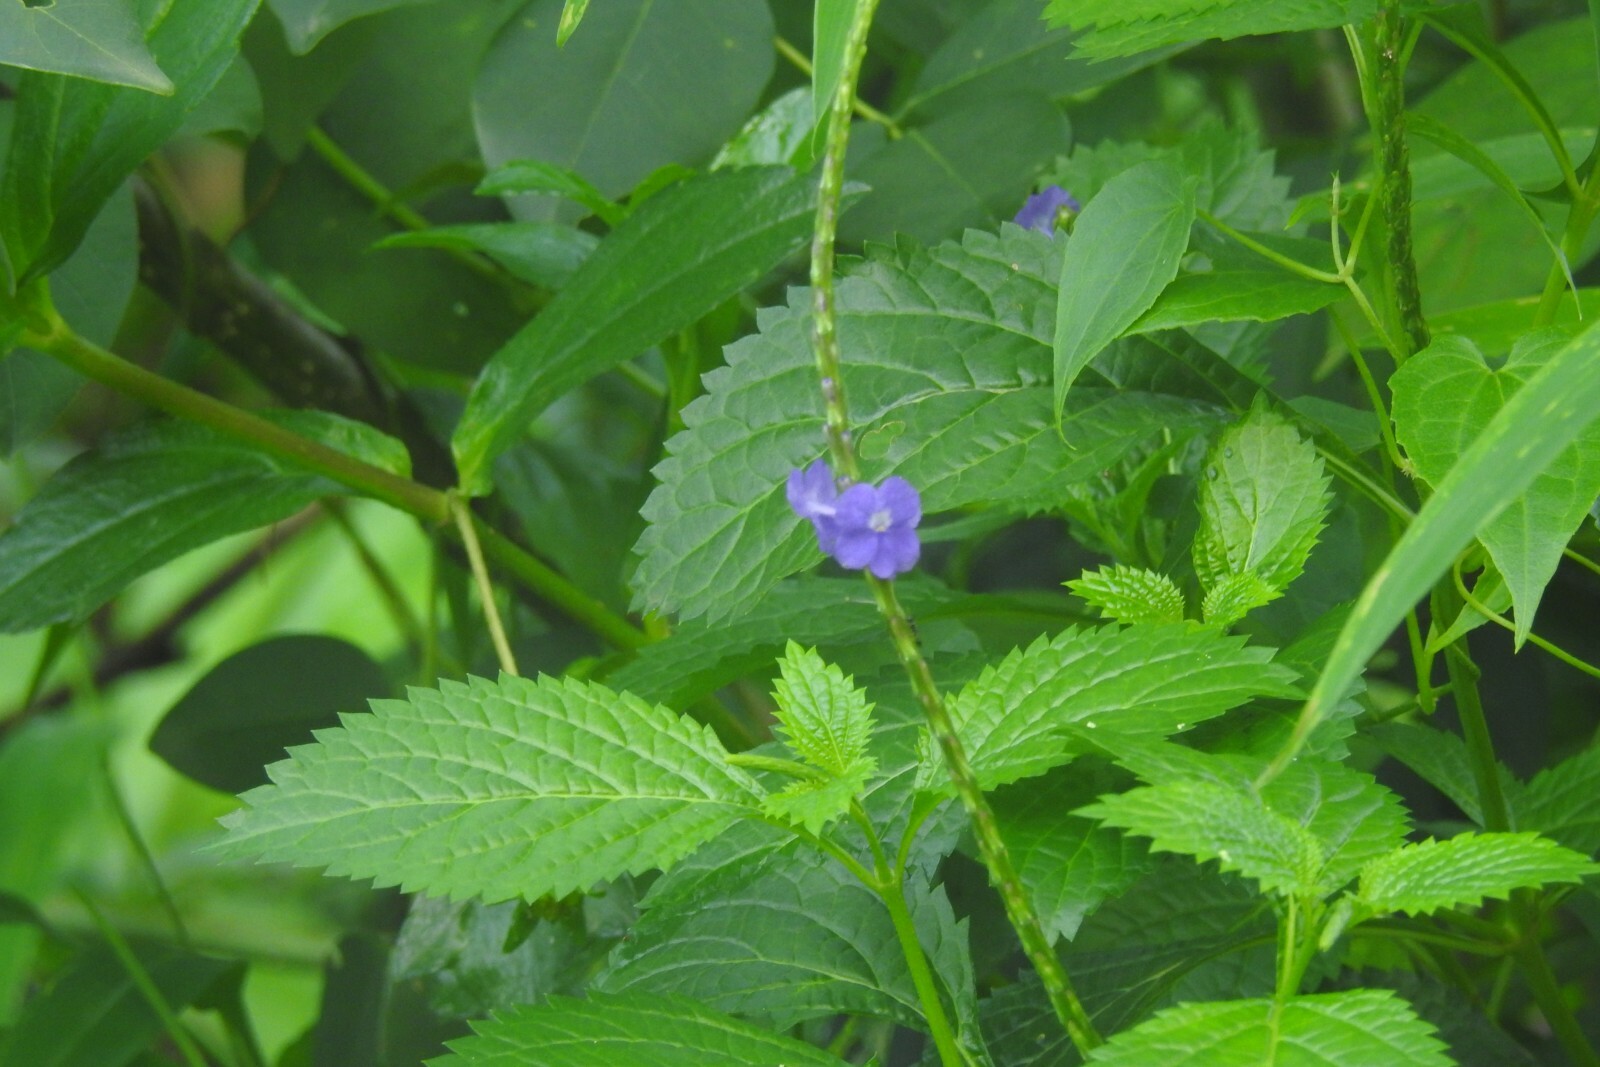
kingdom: Plantae
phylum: Tracheophyta
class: Magnoliopsida
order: Lamiales
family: Verbenaceae
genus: Stachytarpheta
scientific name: Stachytarpheta indica
